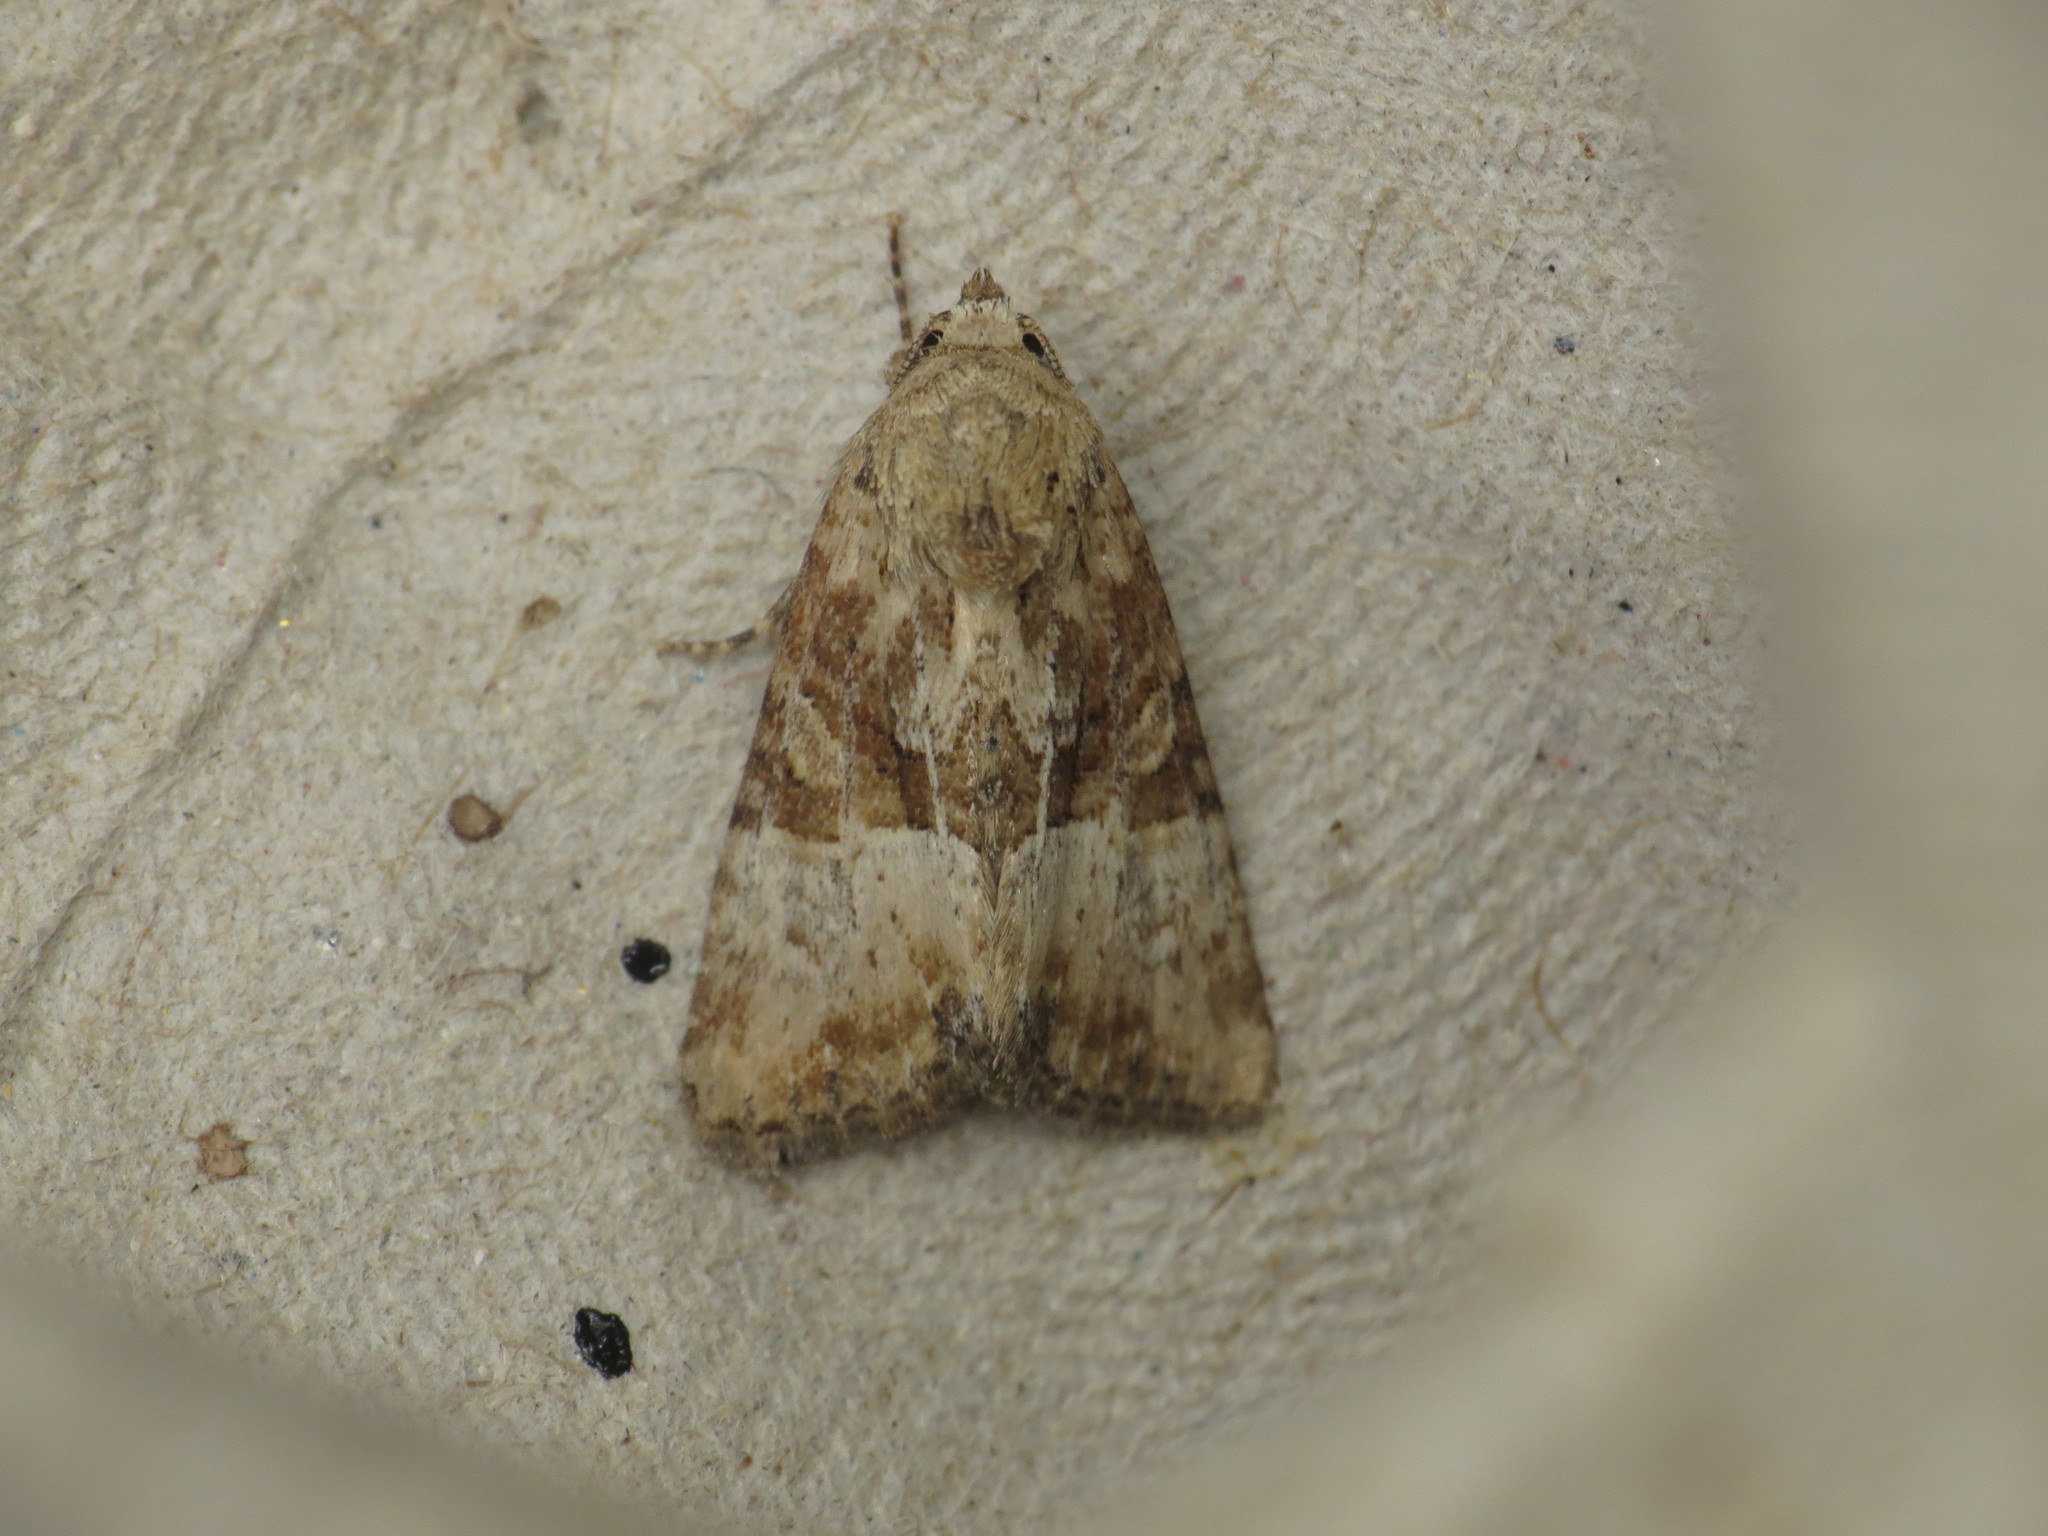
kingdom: Animalia
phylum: Arthropoda
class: Insecta
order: Lepidoptera
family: Noctuidae
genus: Mesoligia
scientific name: Mesoligia furuncula
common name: Cloaked minor
